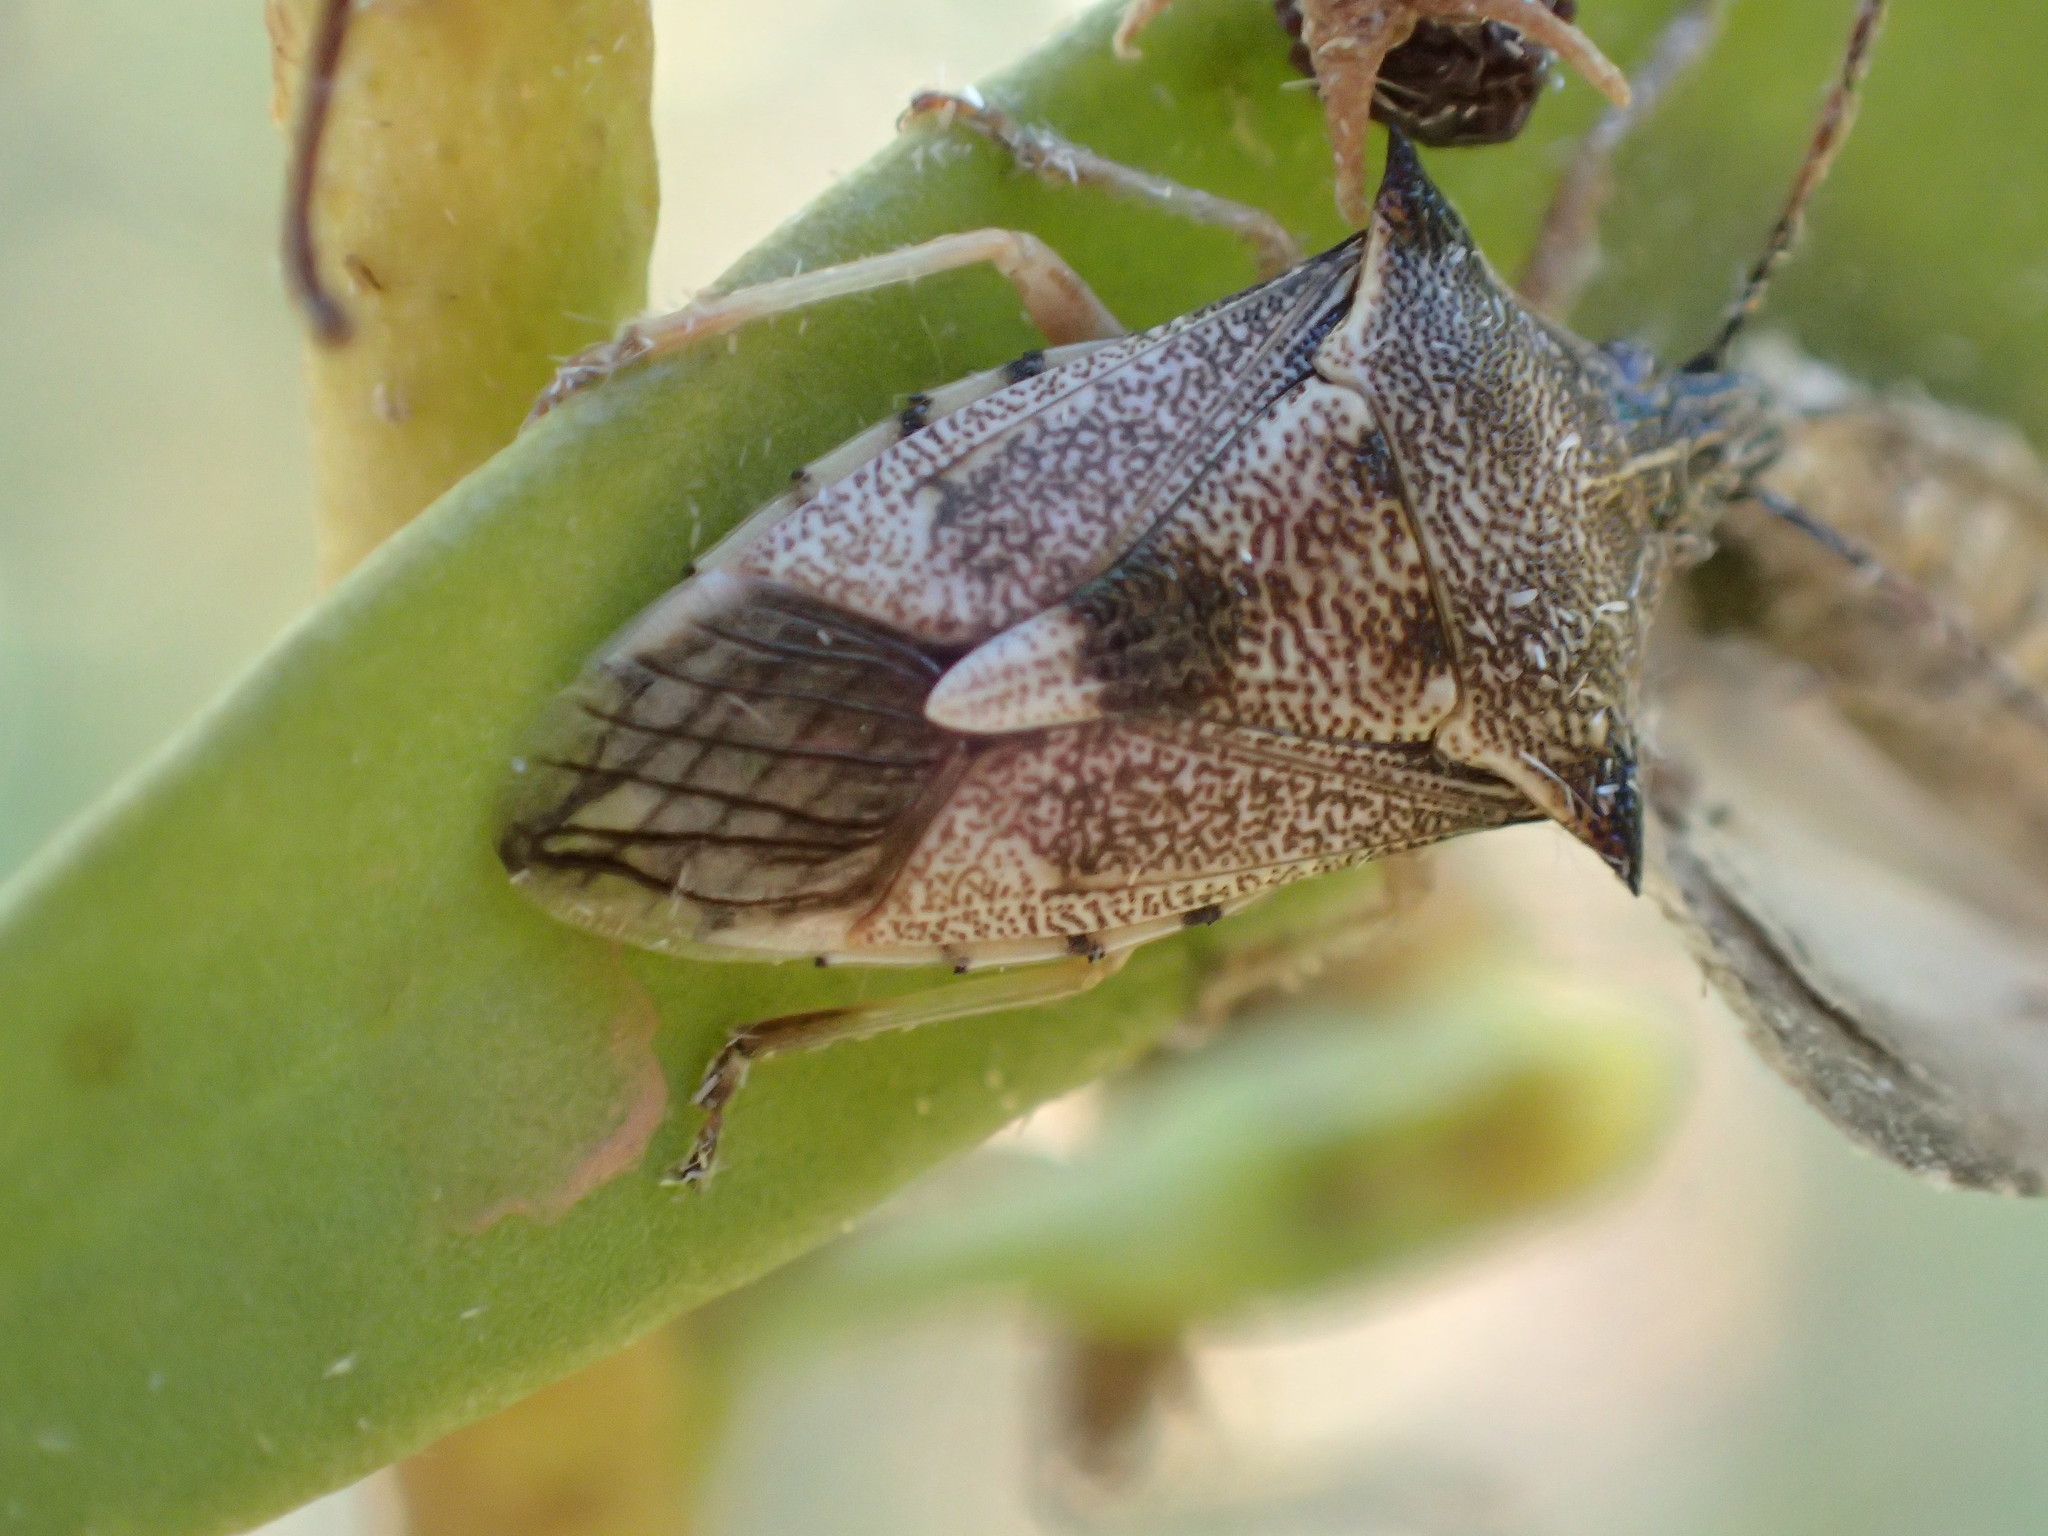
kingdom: Animalia
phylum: Arthropoda
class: Insecta
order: Hemiptera
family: Pentatomidae
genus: Oechalia
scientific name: Oechalia schellenbergii
